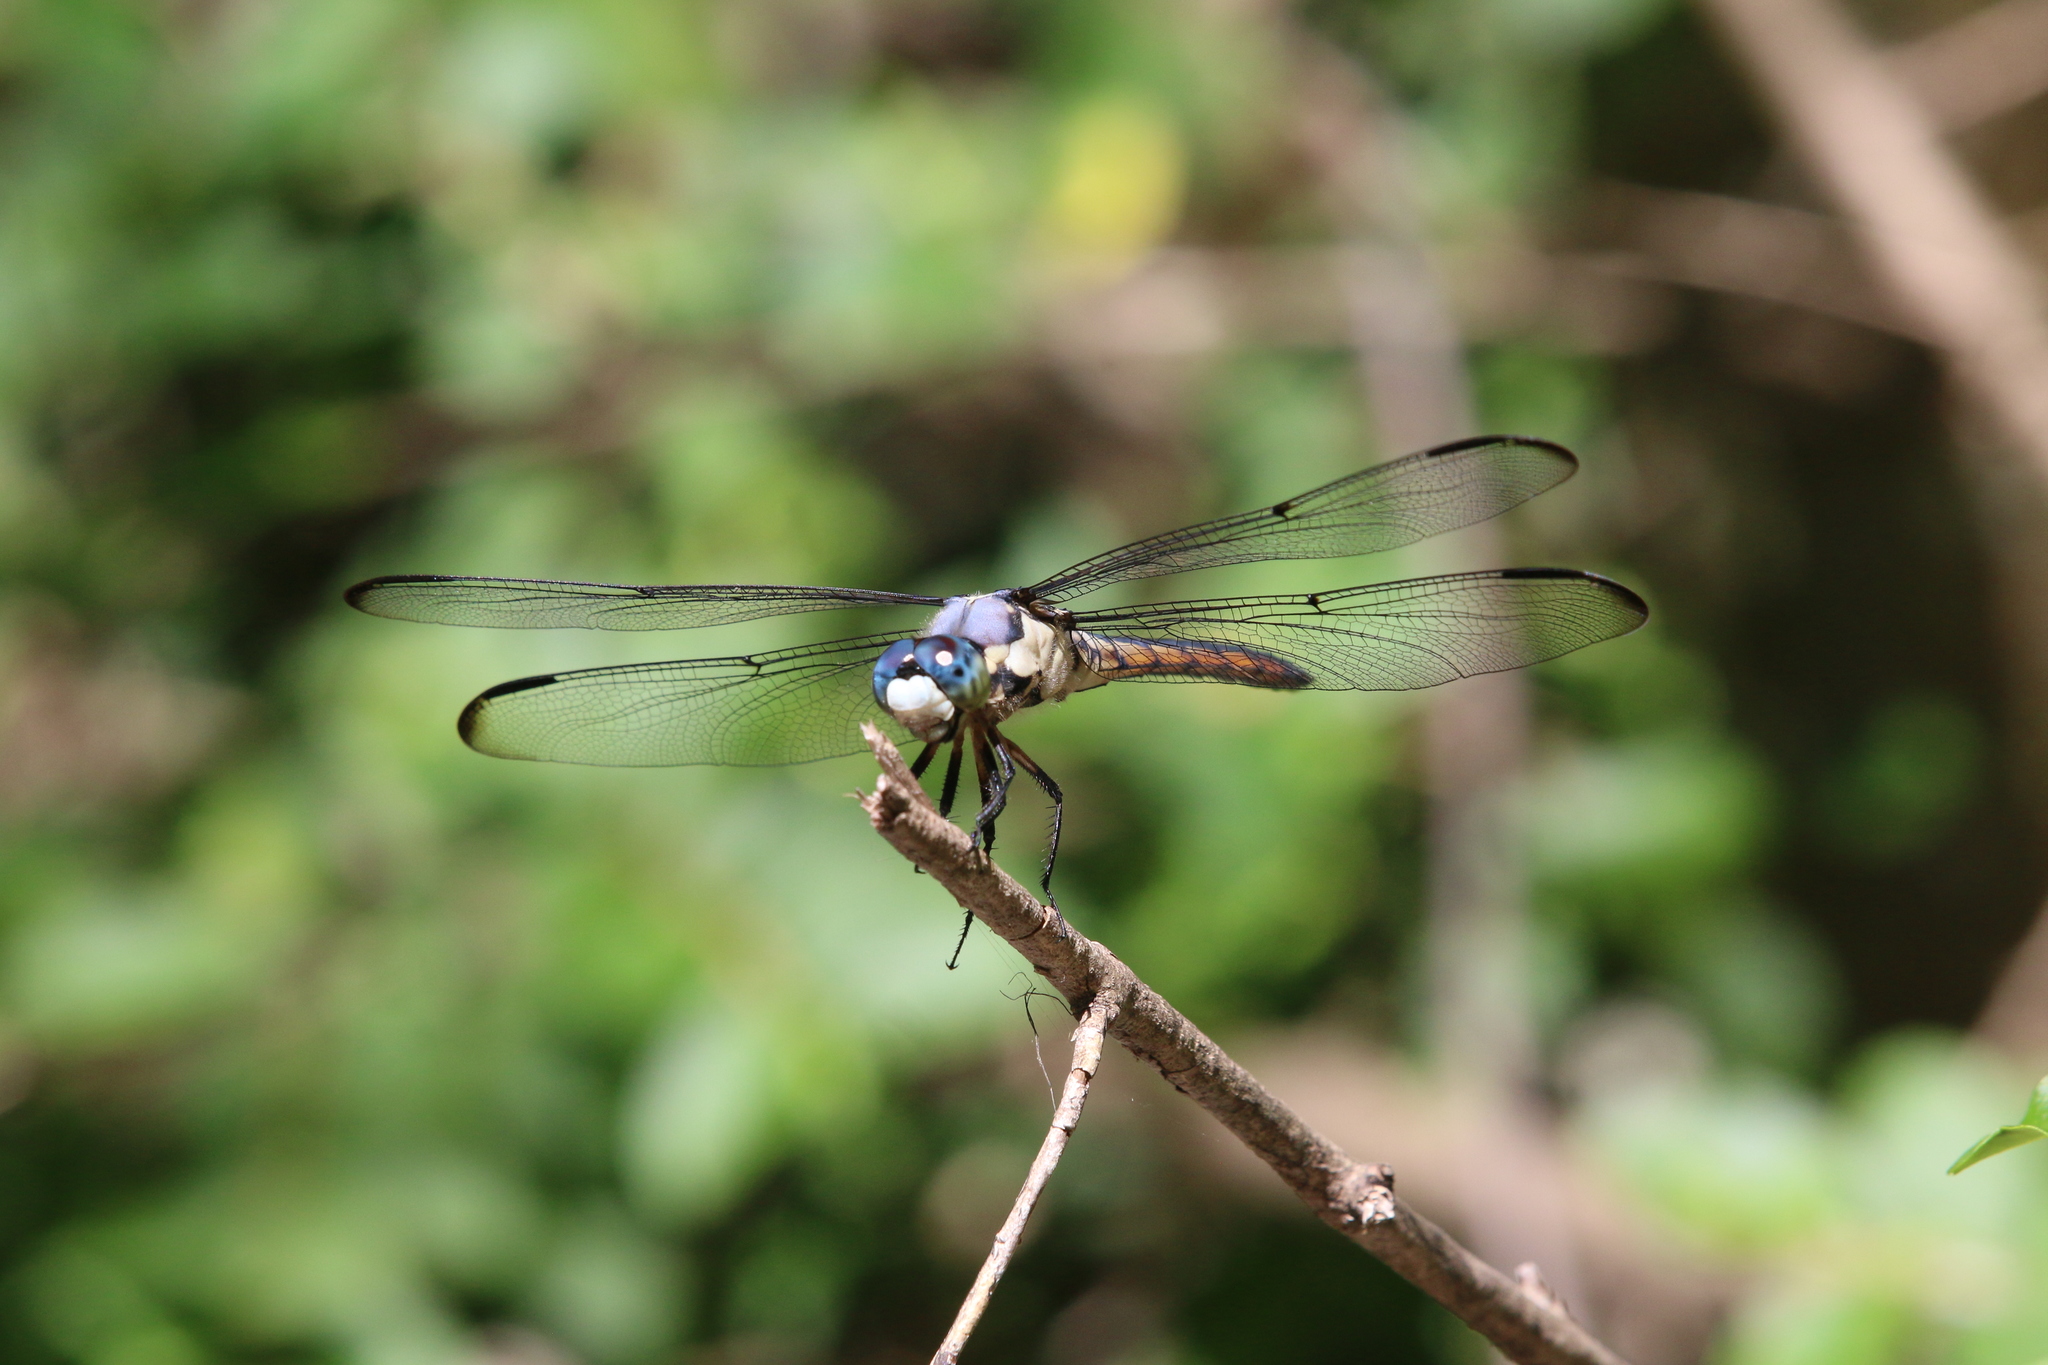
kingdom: Animalia
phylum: Arthropoda
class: Insecta
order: Odonata
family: Libellulidae
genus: Libellula
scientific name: Libellula vibrans
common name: Great blue skimmer
